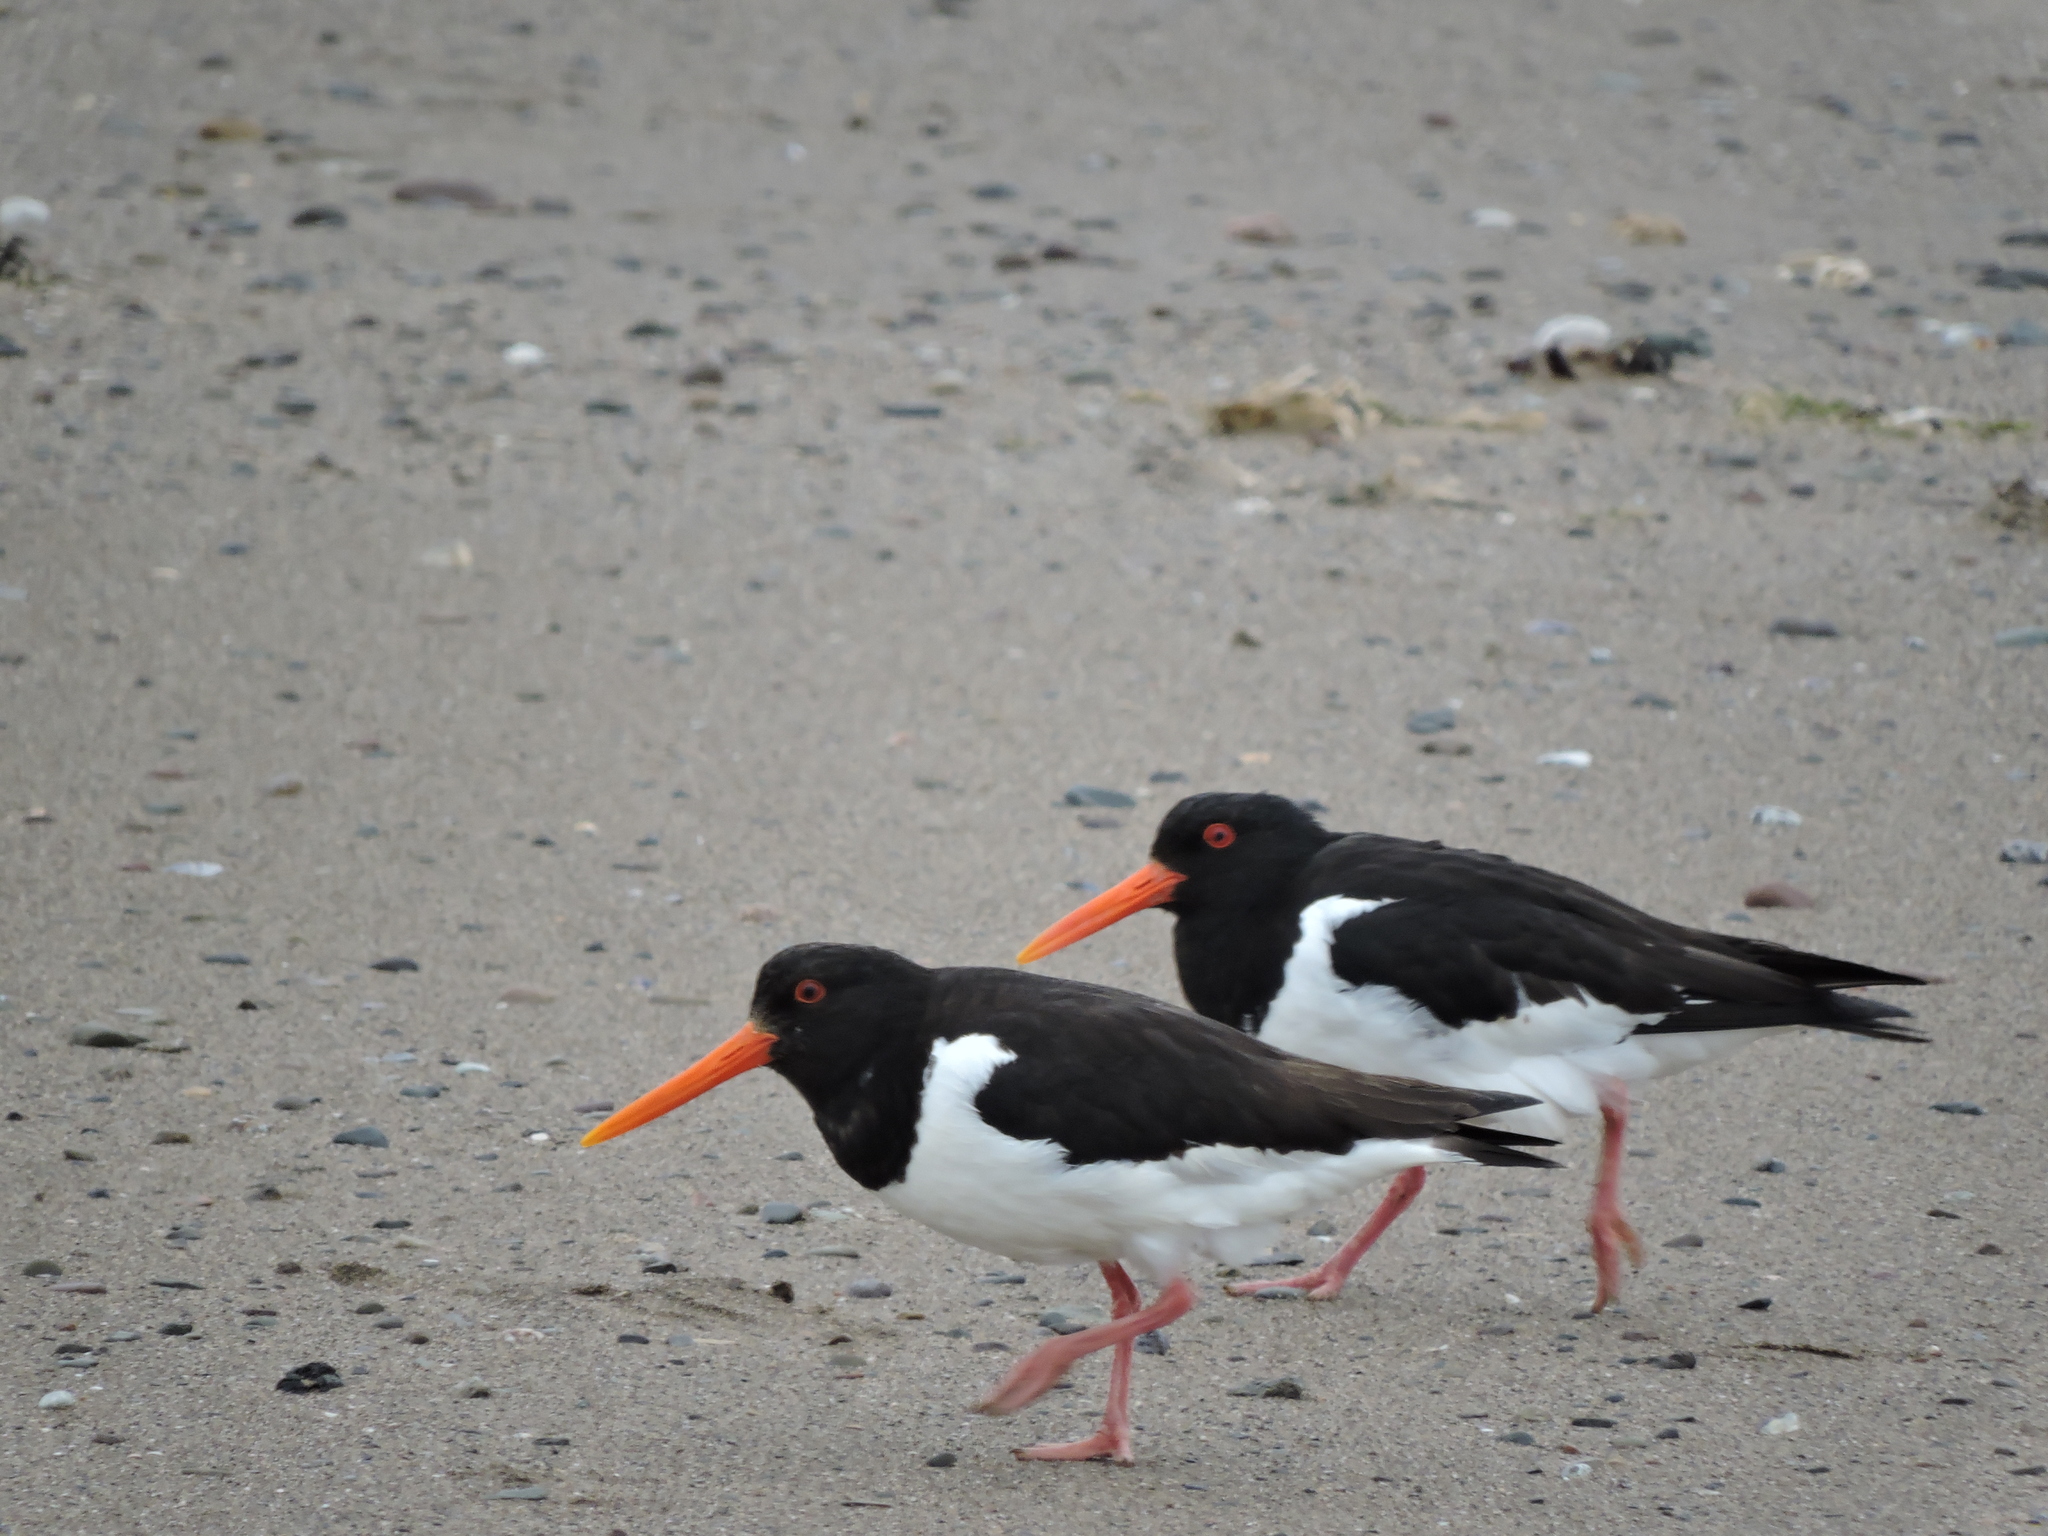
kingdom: Animalia
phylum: Chordata
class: Aves
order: Charadriiformes
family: Haematopodidae
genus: Haematopus
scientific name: Haematopus ostralegus
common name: Eurasian oystercatcher
